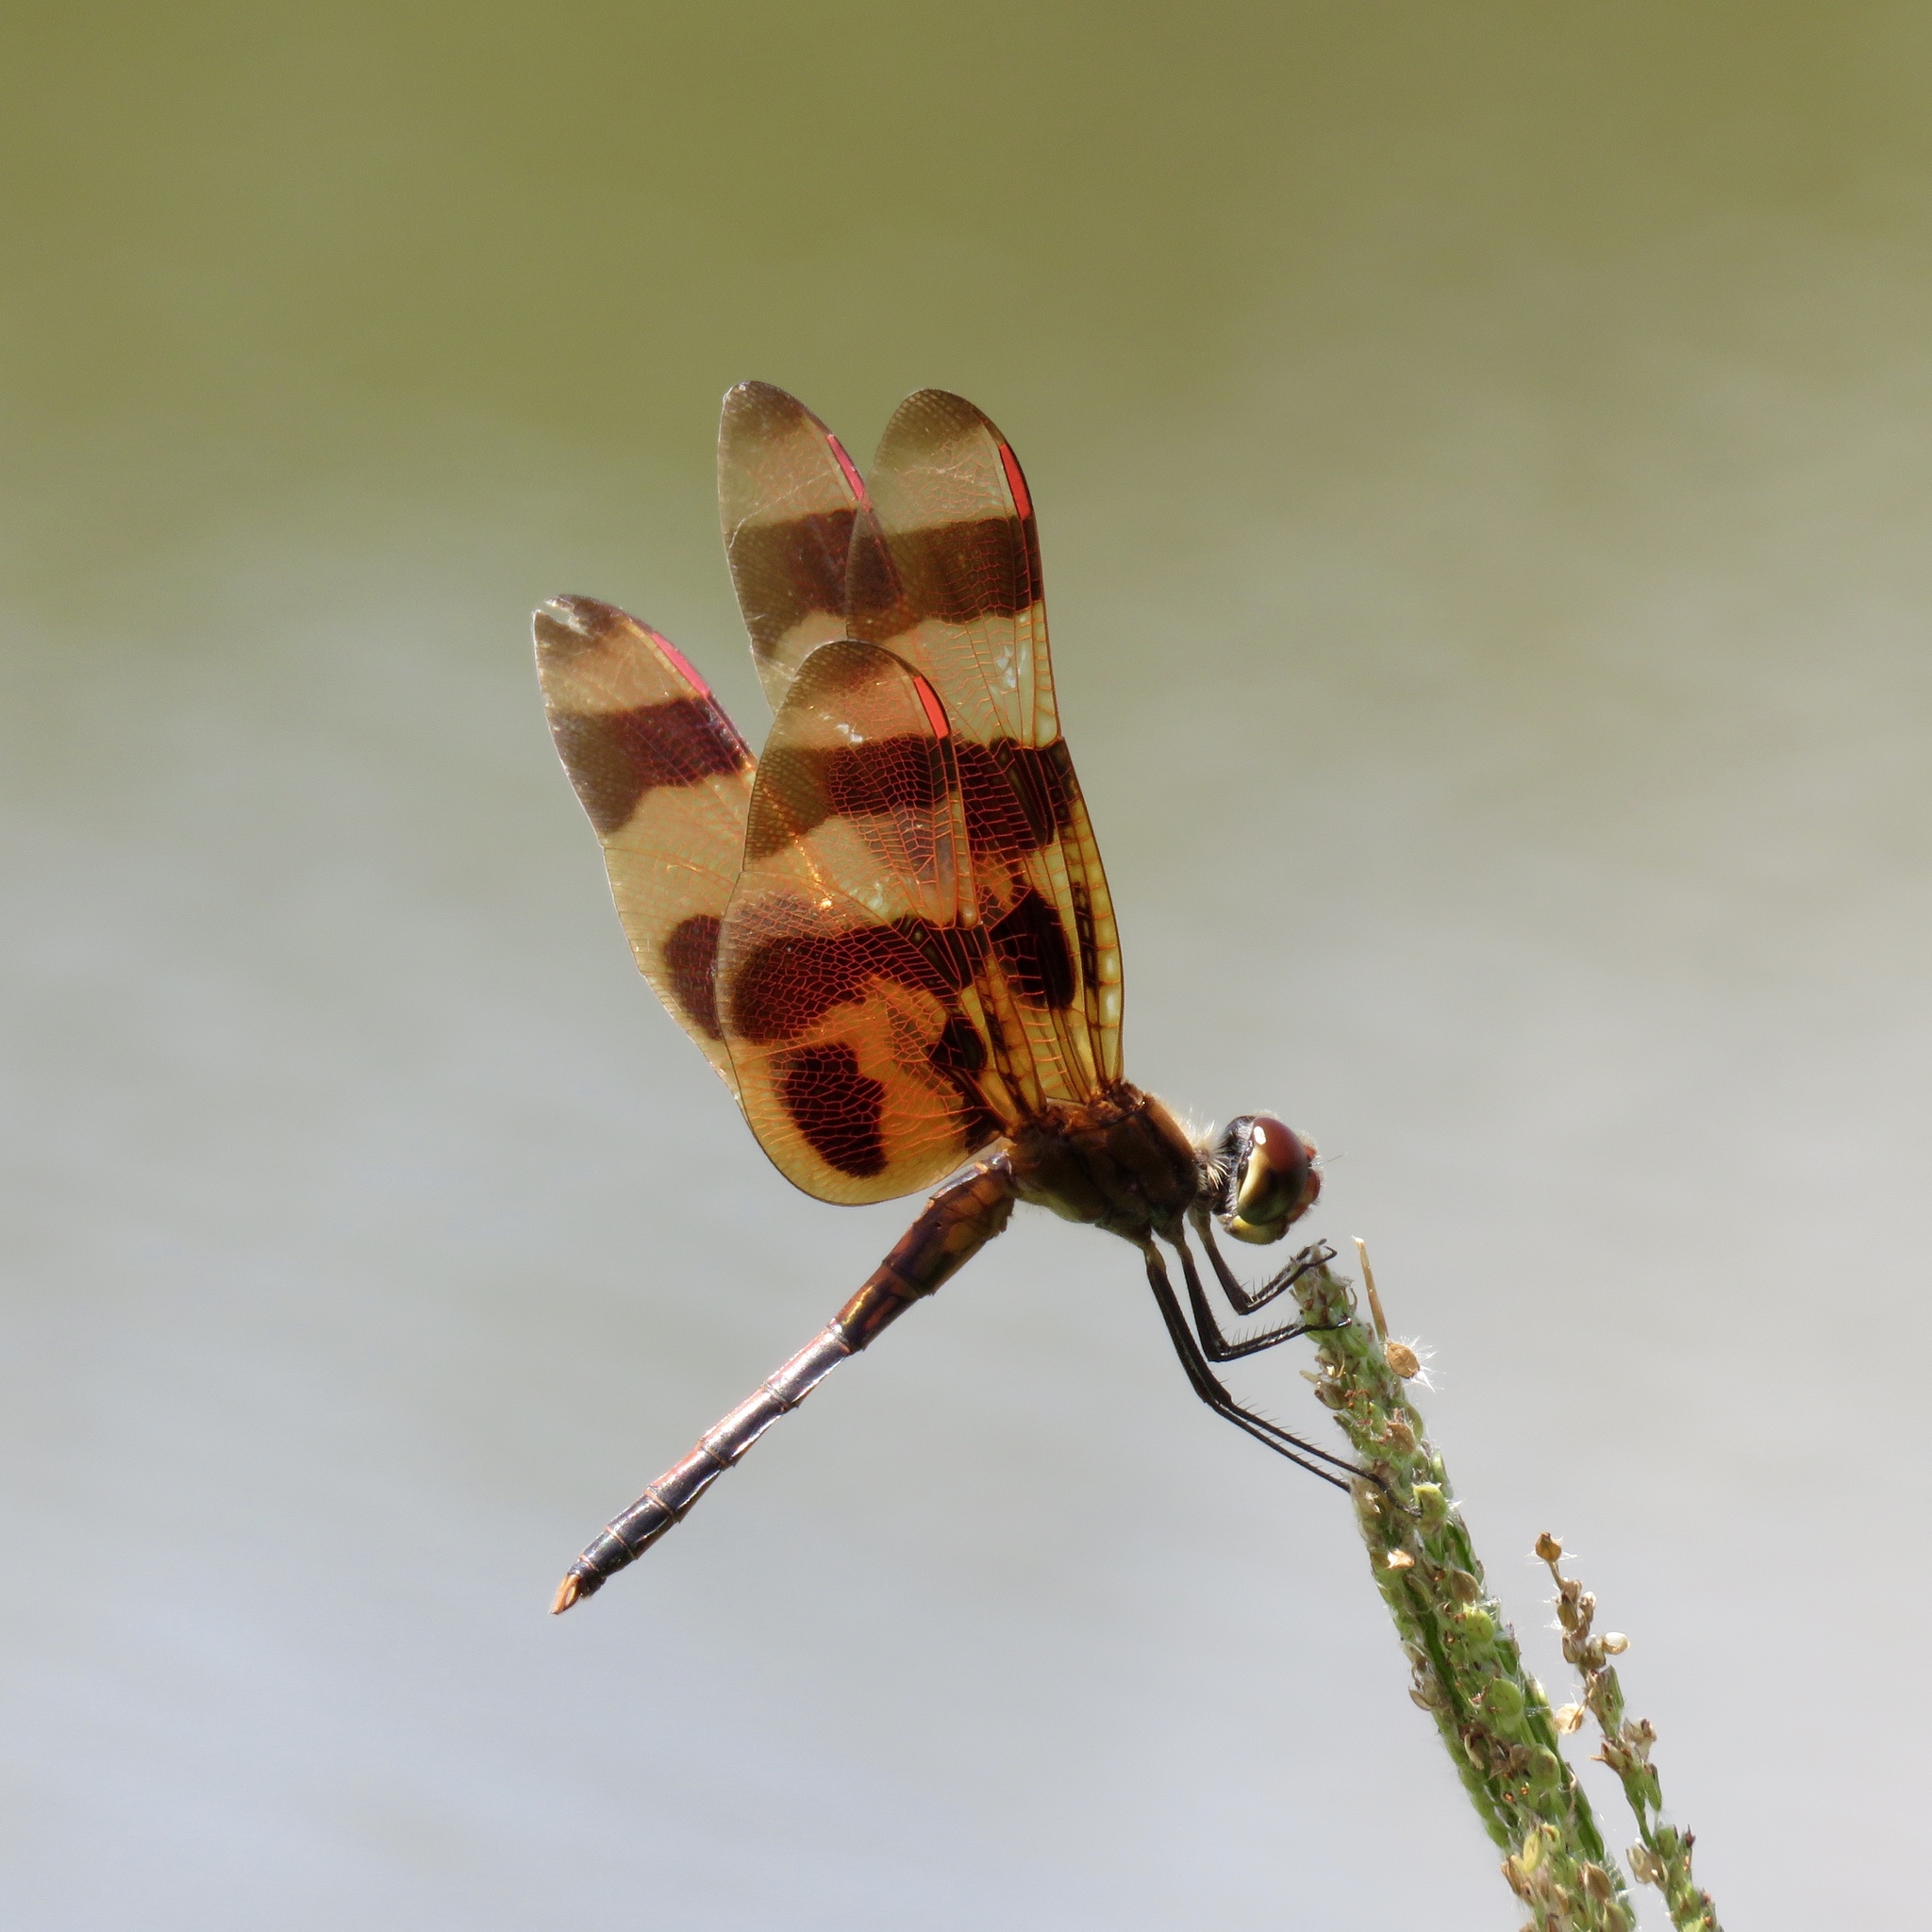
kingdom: Animalia
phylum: Arthropoda
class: Insecta
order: Odonata
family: Libellulidae
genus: Celithemis
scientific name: Celithemis eponina
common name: Halloween pennant
